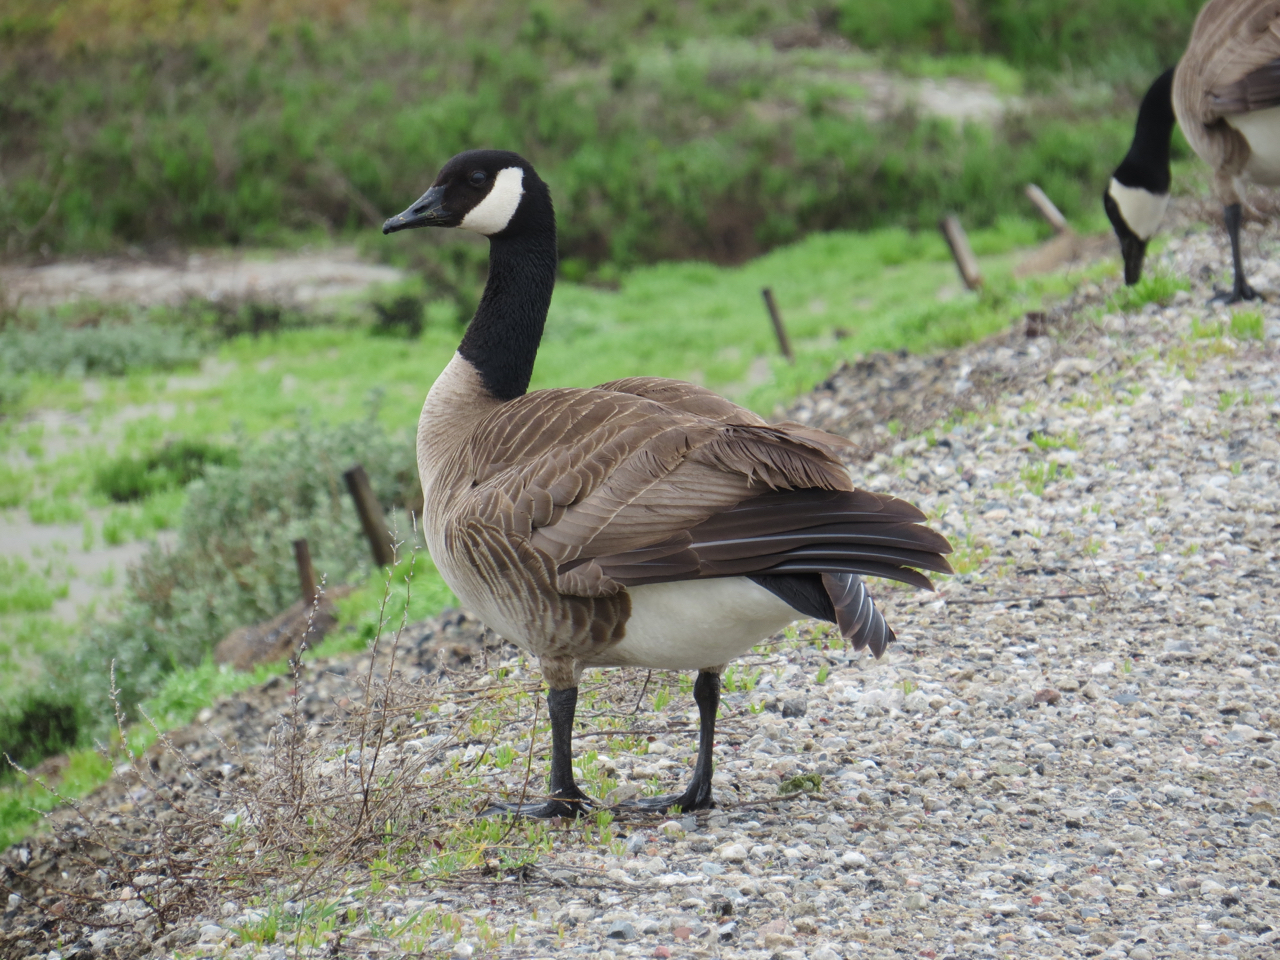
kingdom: Animalia
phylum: Chordata
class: Aves
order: Anseriformes
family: Anatidae
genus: Branta
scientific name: Branta canadensis
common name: Canada goose
